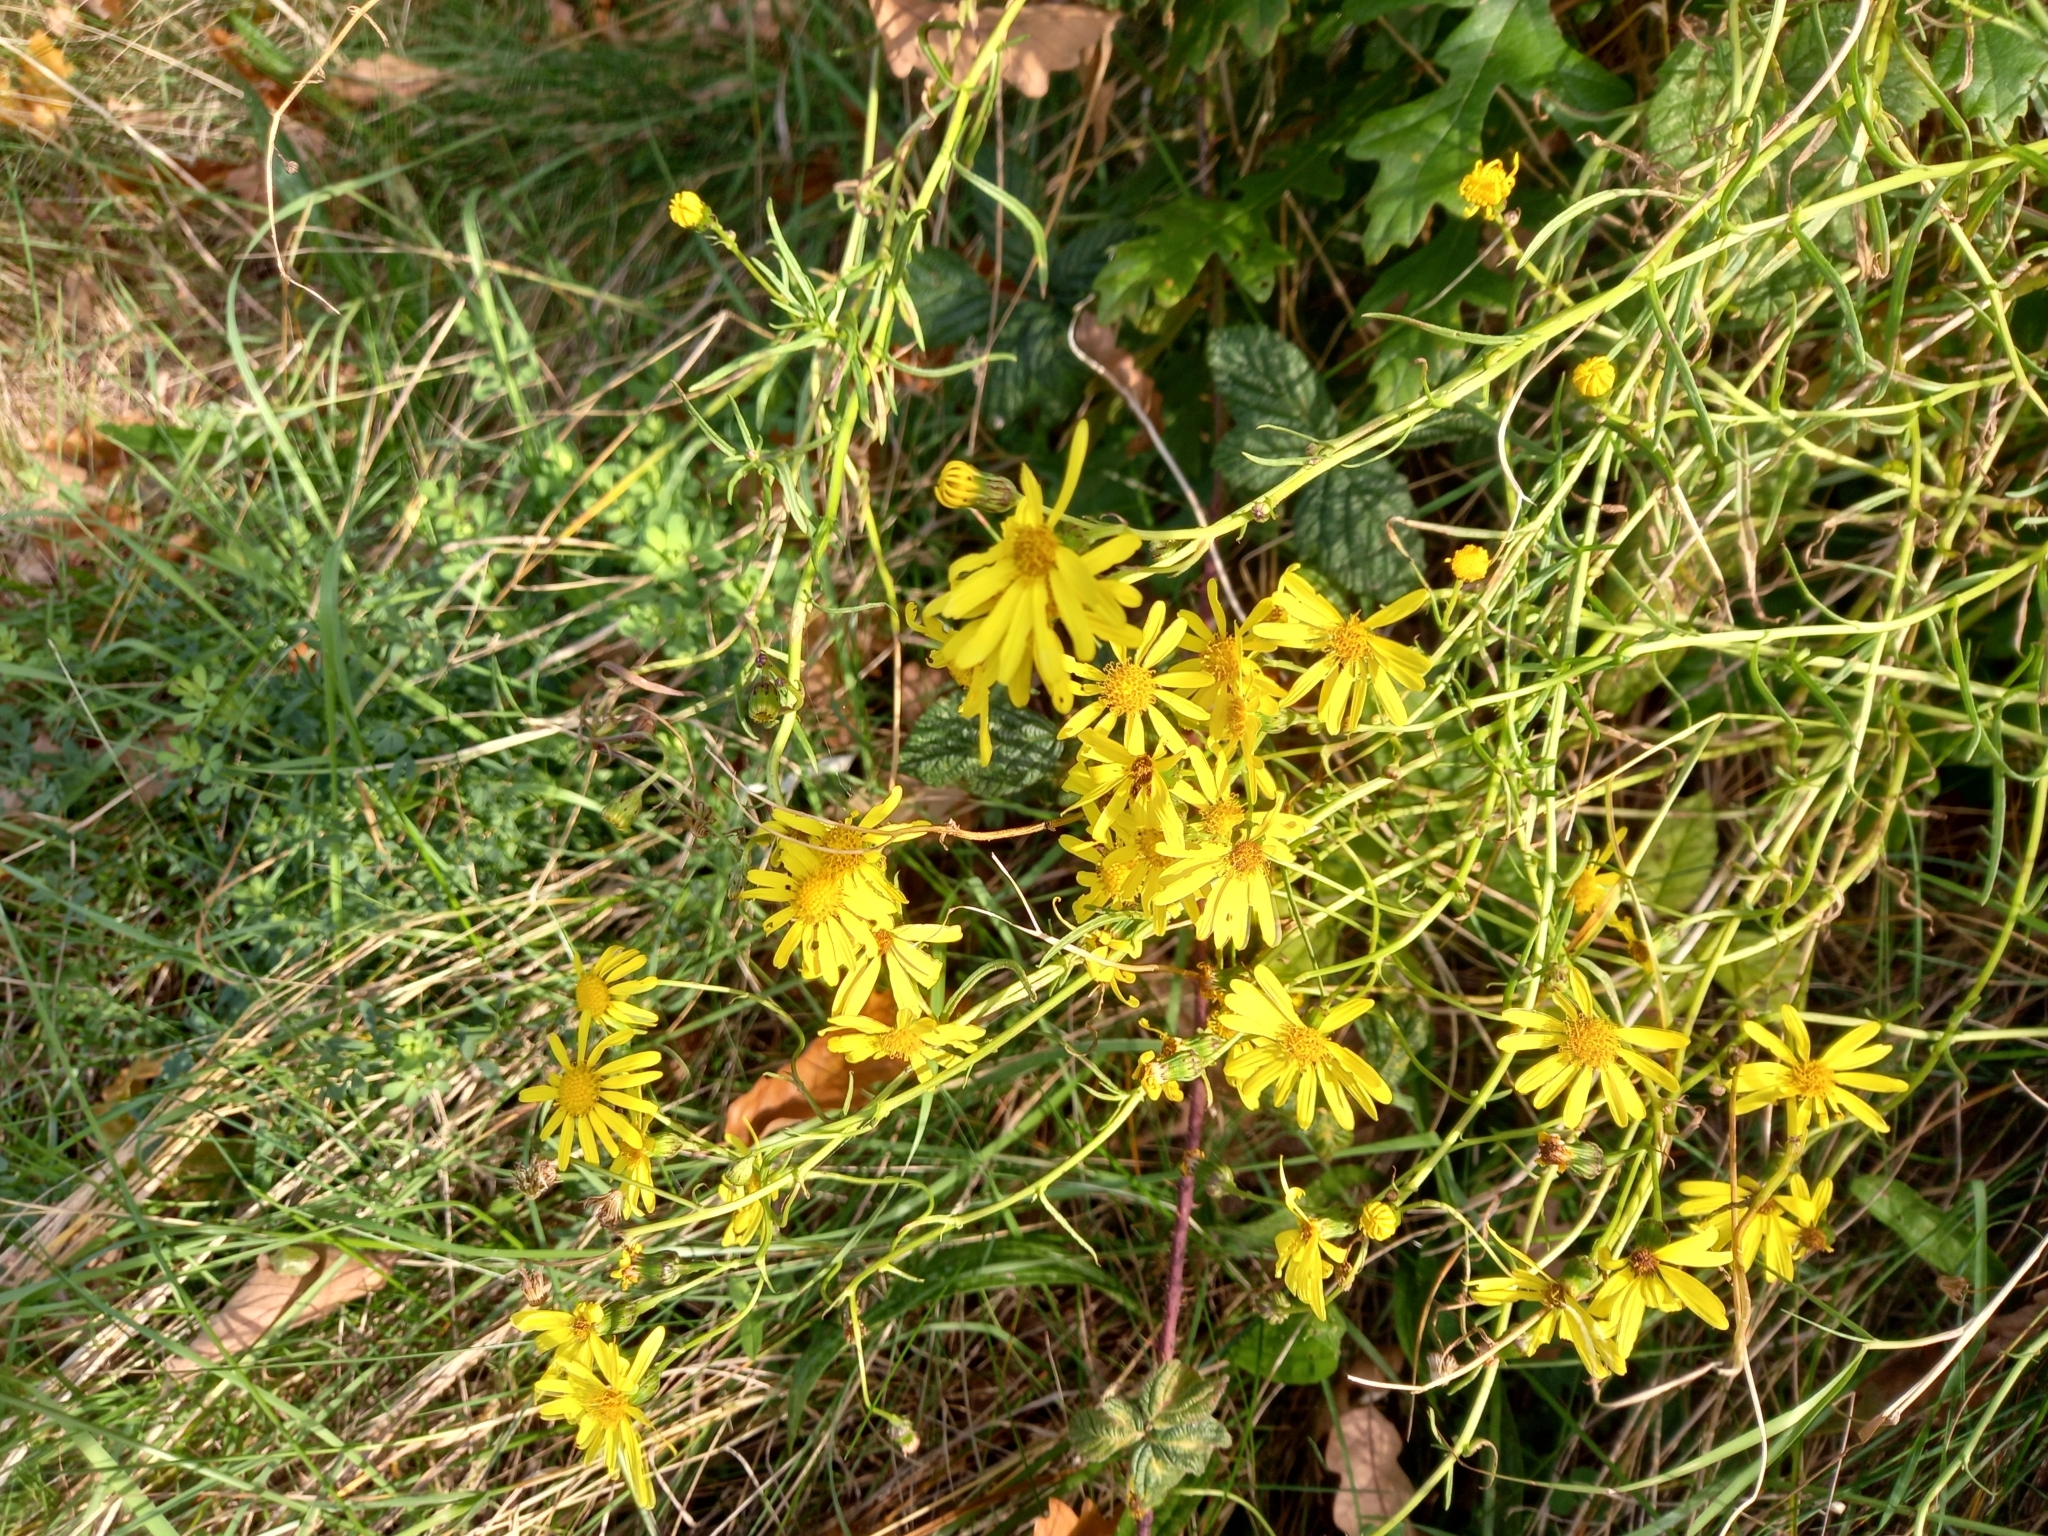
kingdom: Plantae
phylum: Tracheophyta
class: Magnoliopsida
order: Asterales
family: Asteraceae
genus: Senecio
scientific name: Senecio inaequidens
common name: Narrow-leaved ragwort
